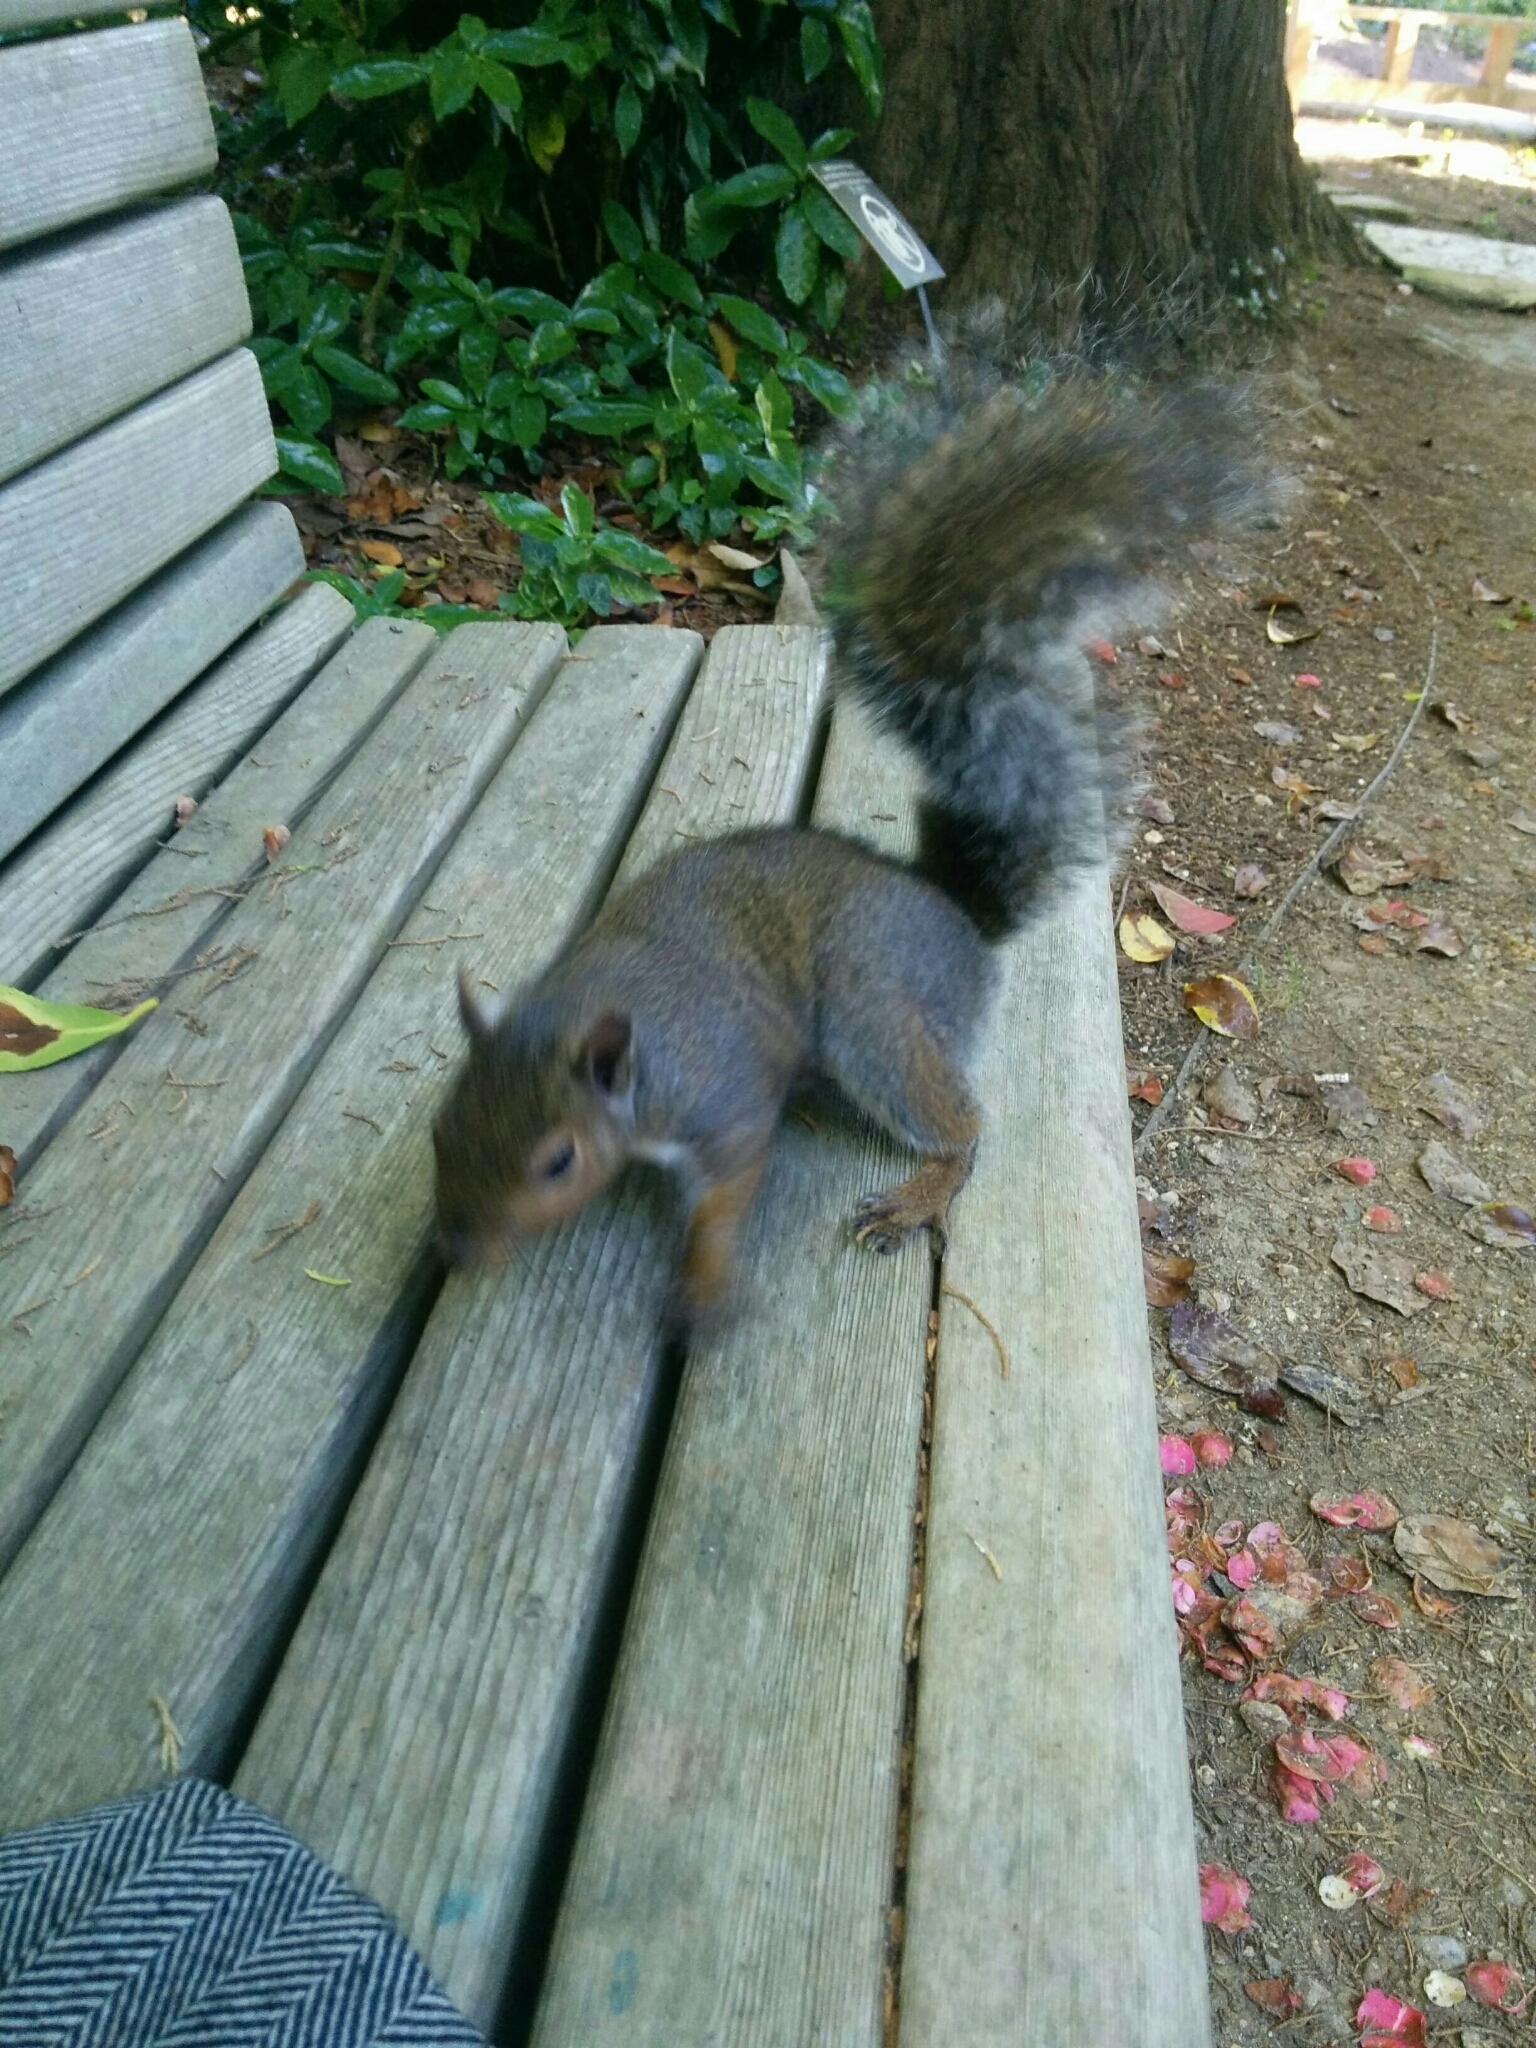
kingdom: Animalia
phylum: Chordata
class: Mammalia
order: Rodentia
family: Sciuridae
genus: Sciurus
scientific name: Sciurus carolinensis
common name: Eastern gray squirrel
